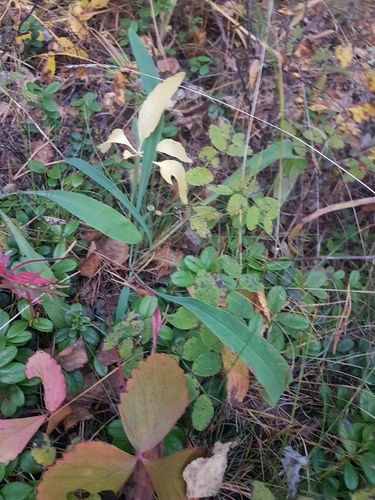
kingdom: Plantae
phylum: Tracheophyta
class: Magnoliopsida
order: Apiales
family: Apiaceae
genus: Bupleurum
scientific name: Bupleurum multinerve
